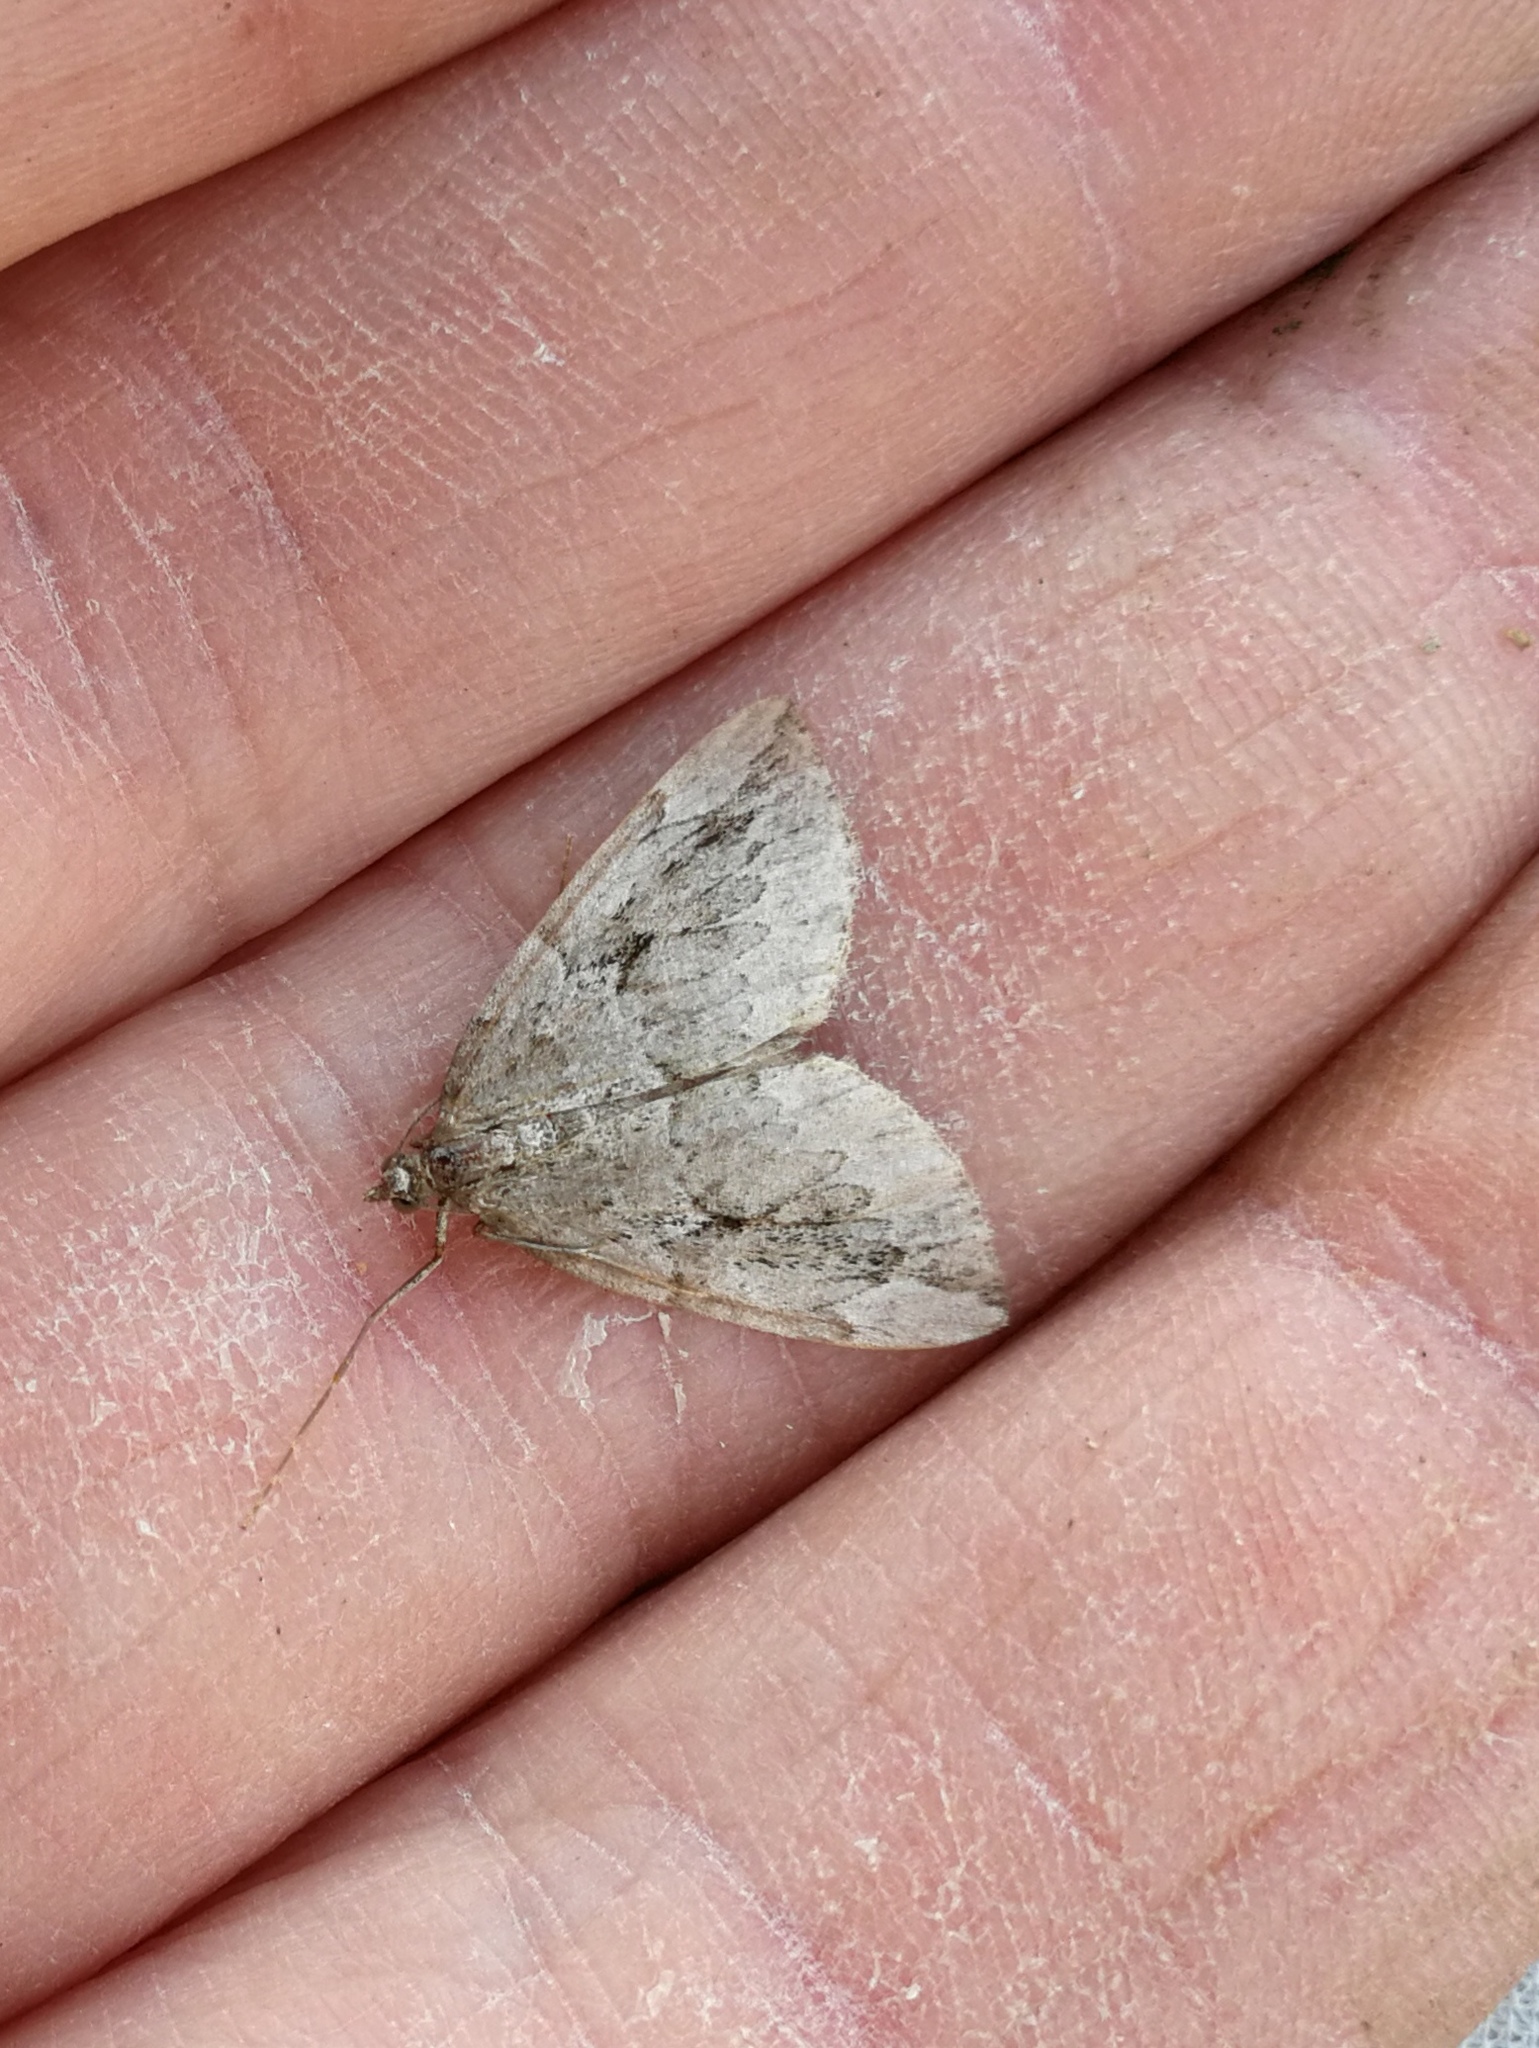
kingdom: Animalia
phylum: Arthropoda
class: Insecta
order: Lepidoptera
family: Geometridae
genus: Thera
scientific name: Thera juniperata
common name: Juniper carpet
